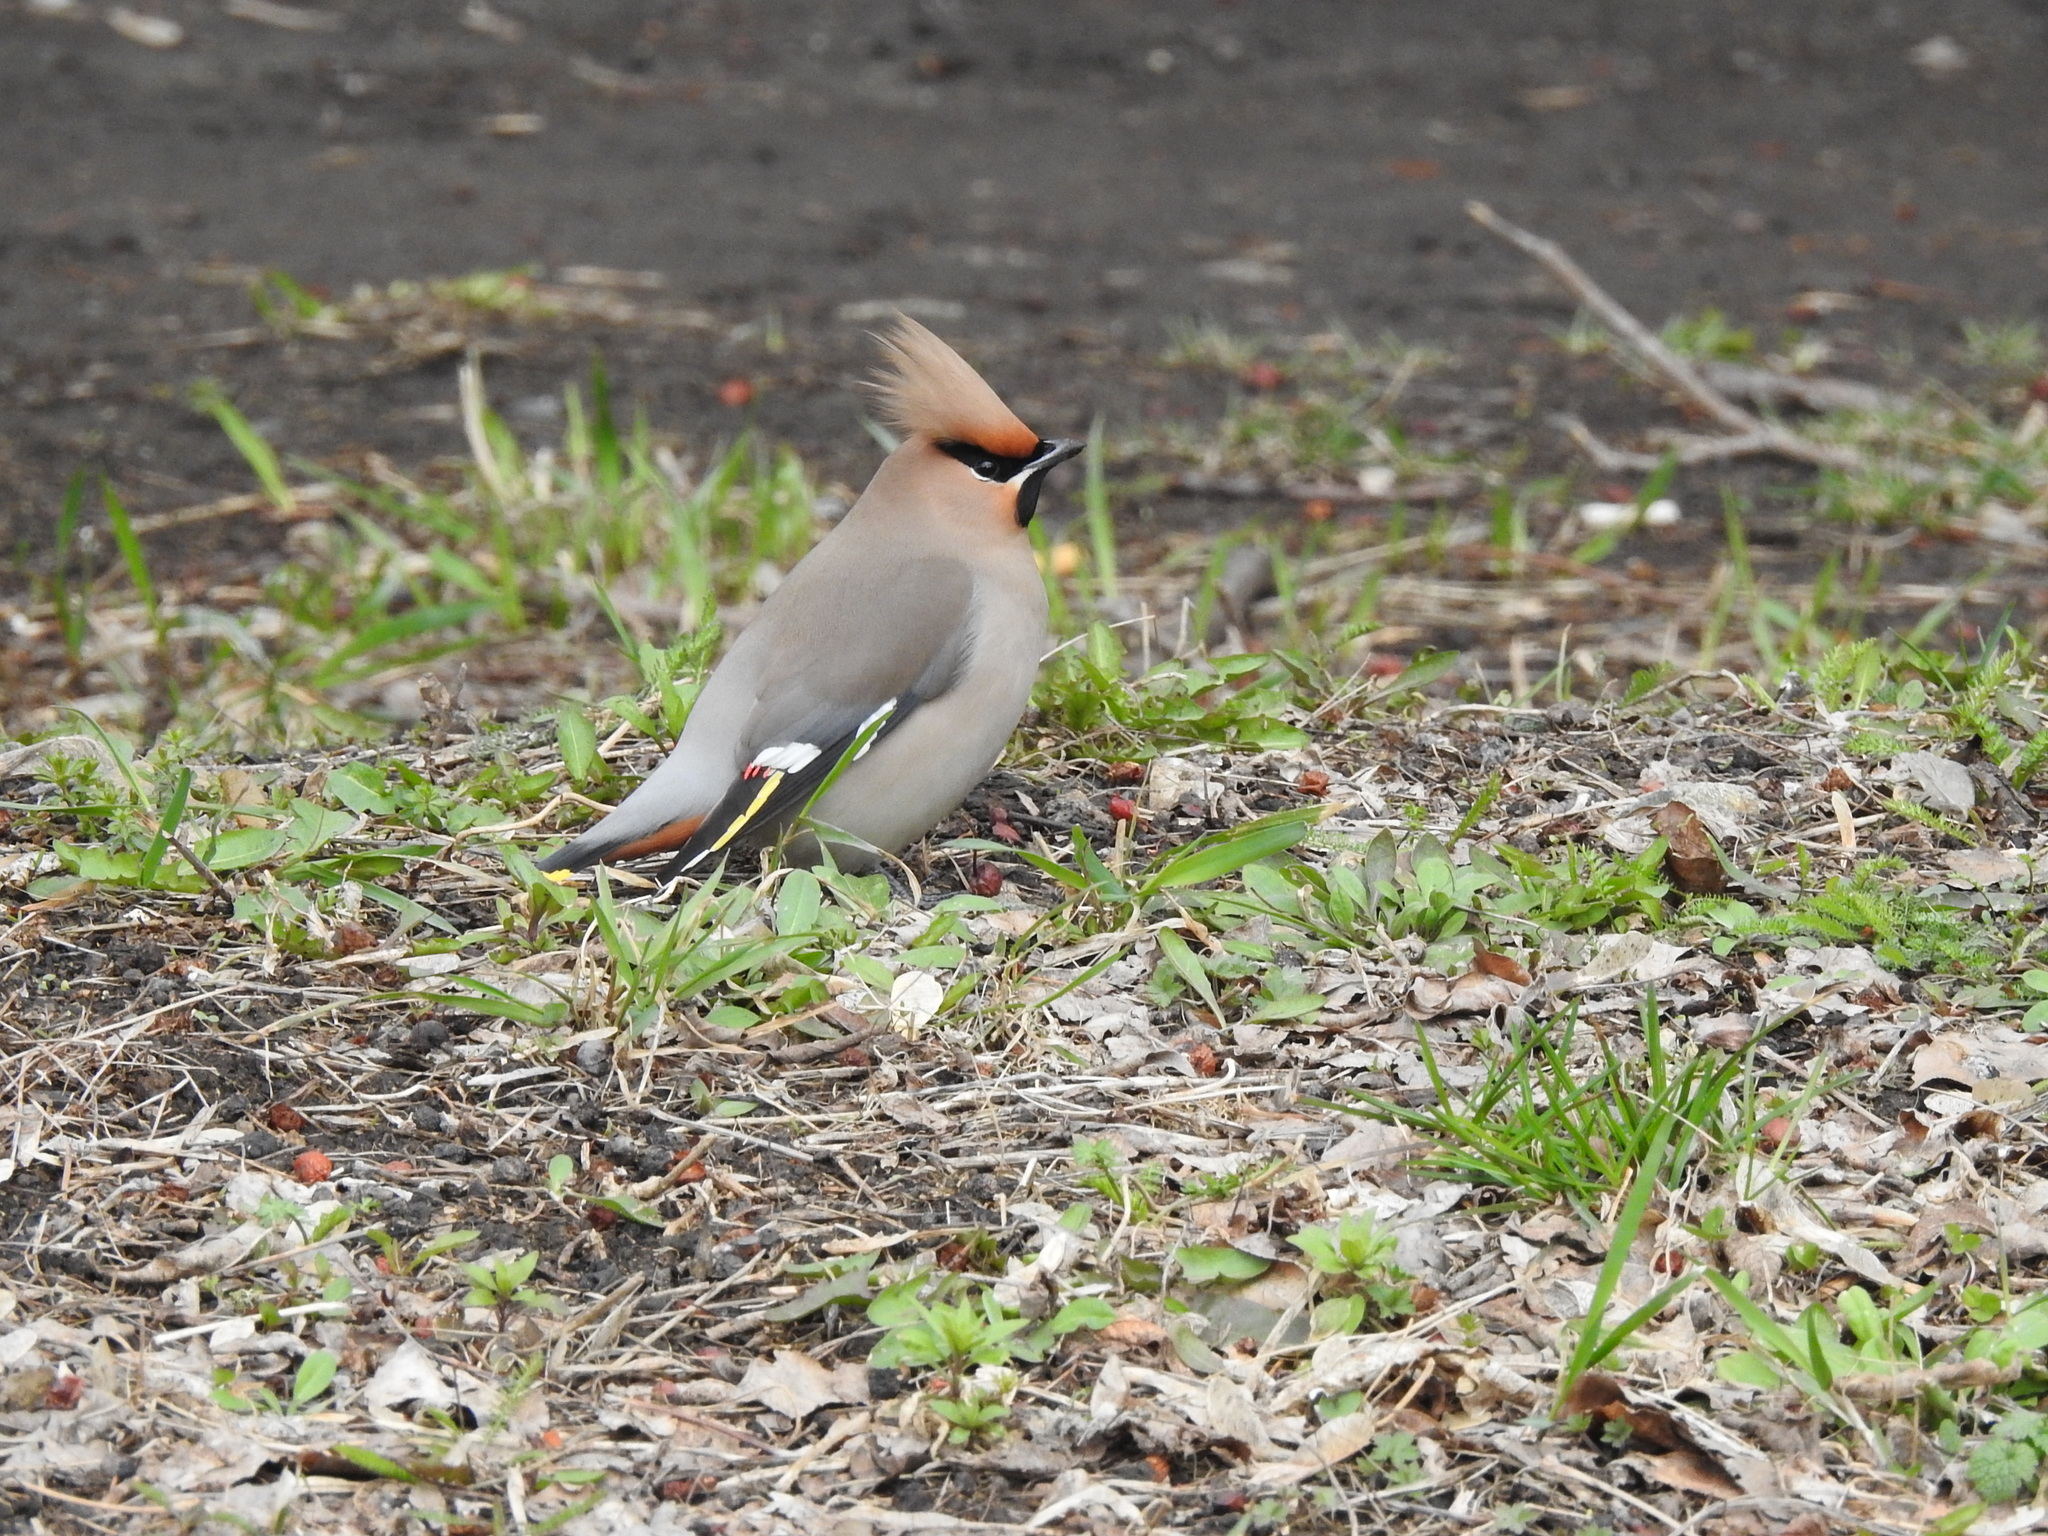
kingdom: Animalia
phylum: Chordata
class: Aves
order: Passeriformes
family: Bombycillidae
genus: Bombycilla
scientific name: Bombycilla garrulus
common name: Bohemian waxwing
